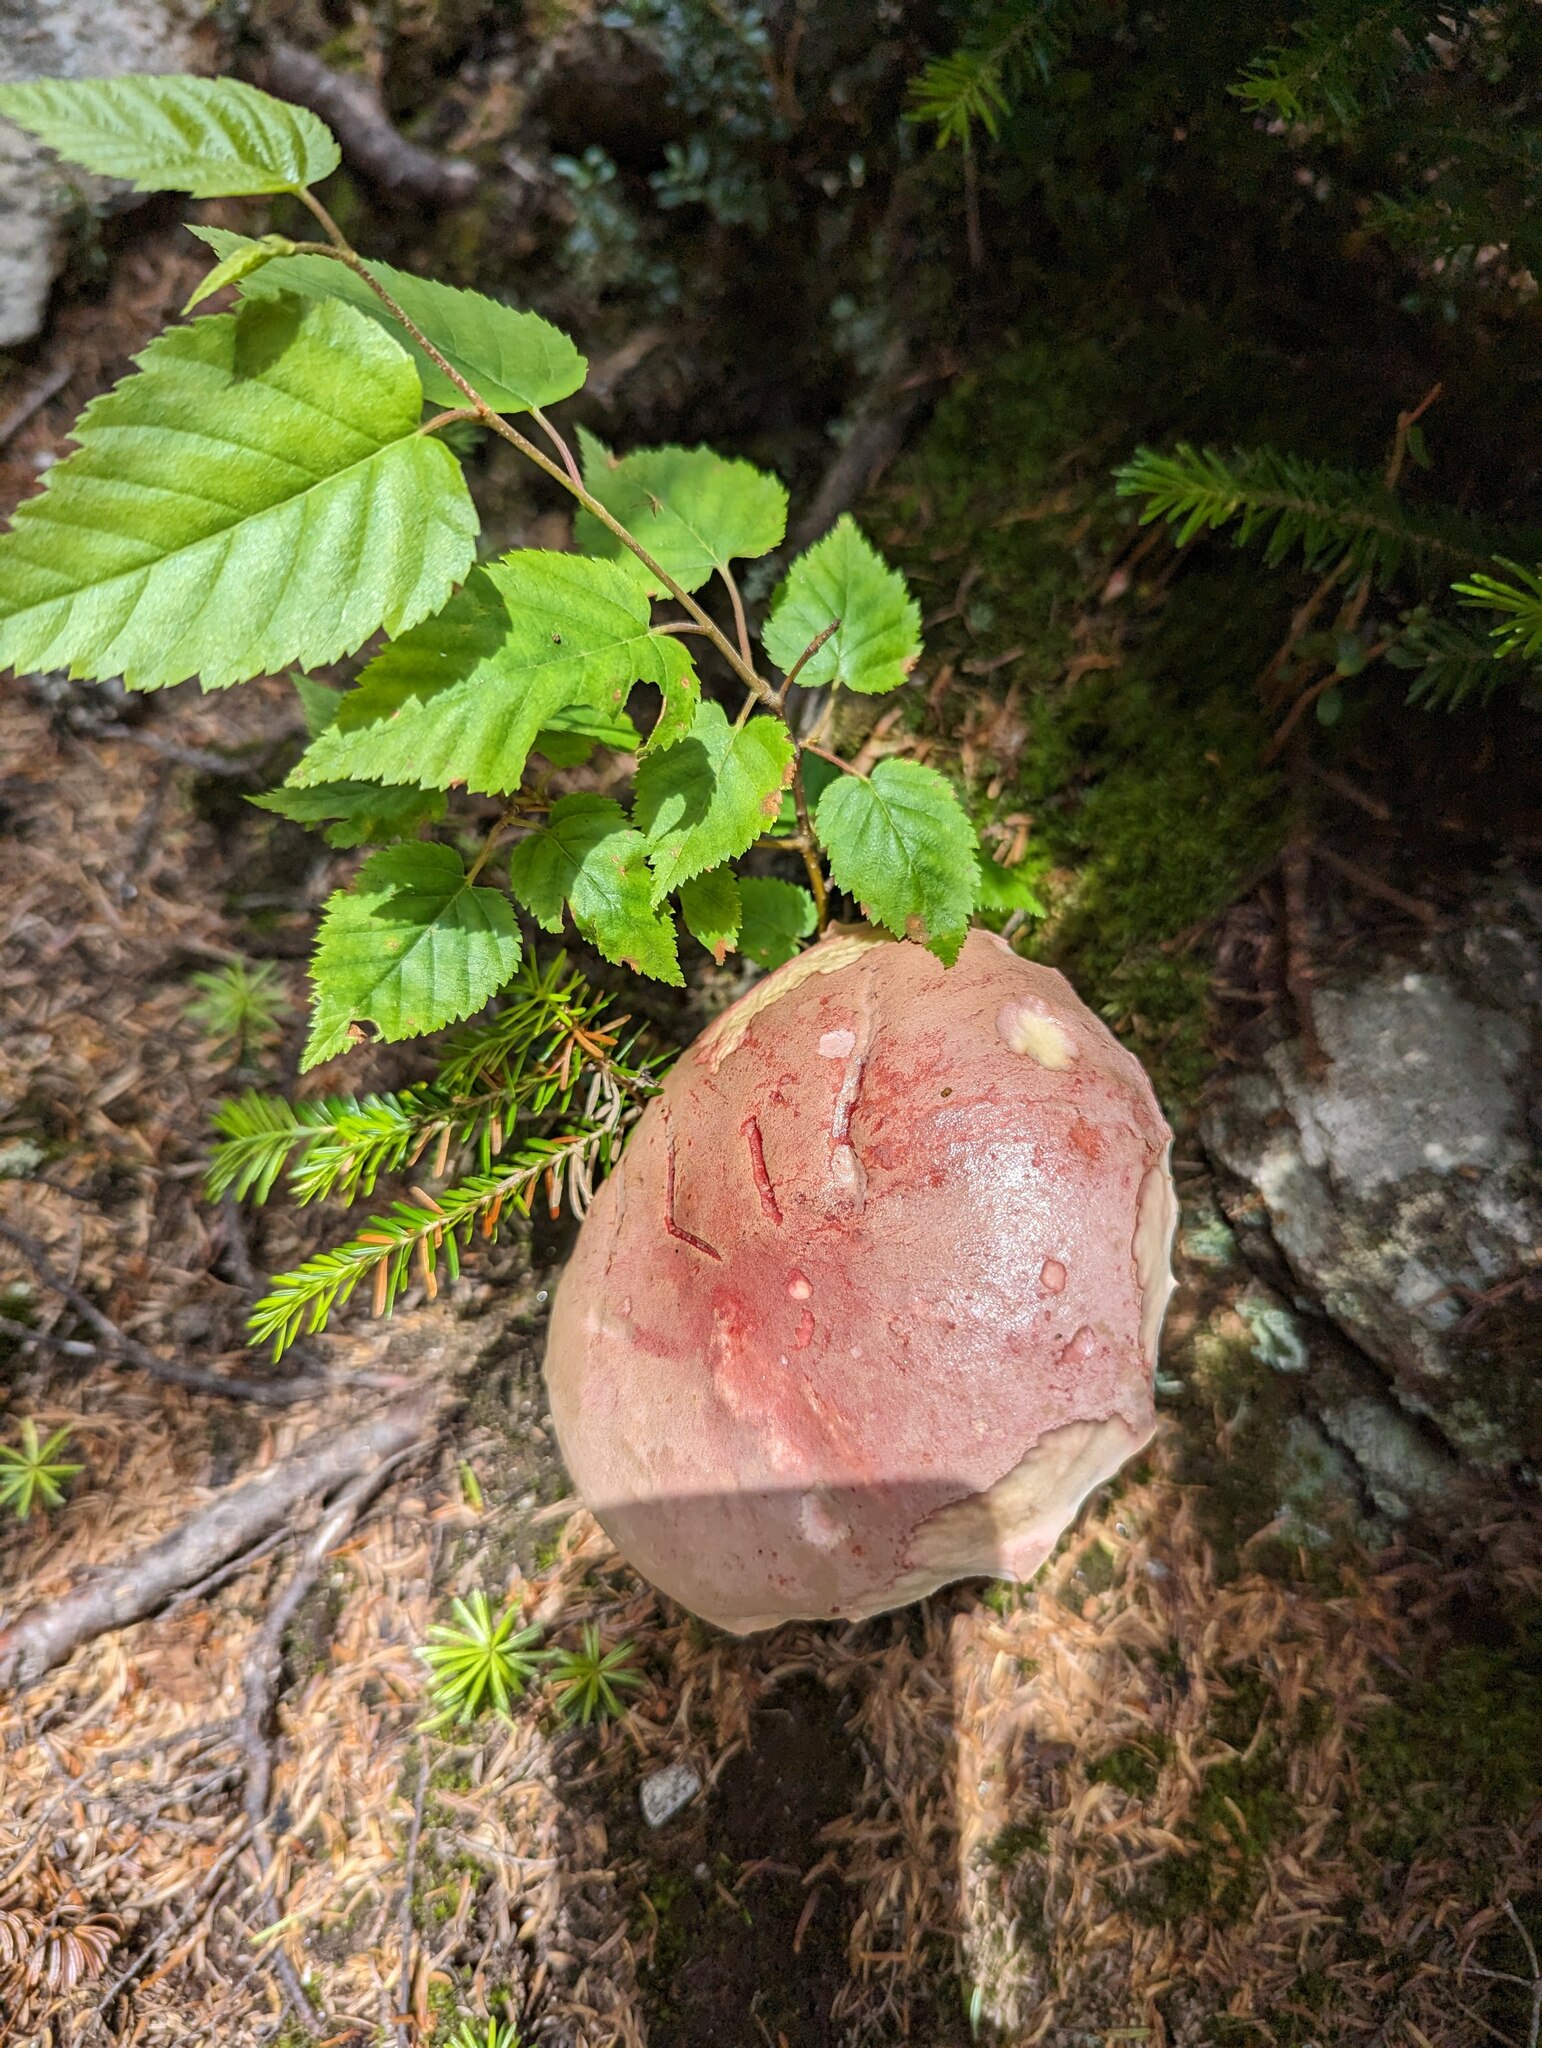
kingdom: Plantae
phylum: Tracheophyta
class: Magnoliopsida
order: Fagales
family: Betulaceae
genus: Betula
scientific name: Betula cordifolia
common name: Mountain white birch
